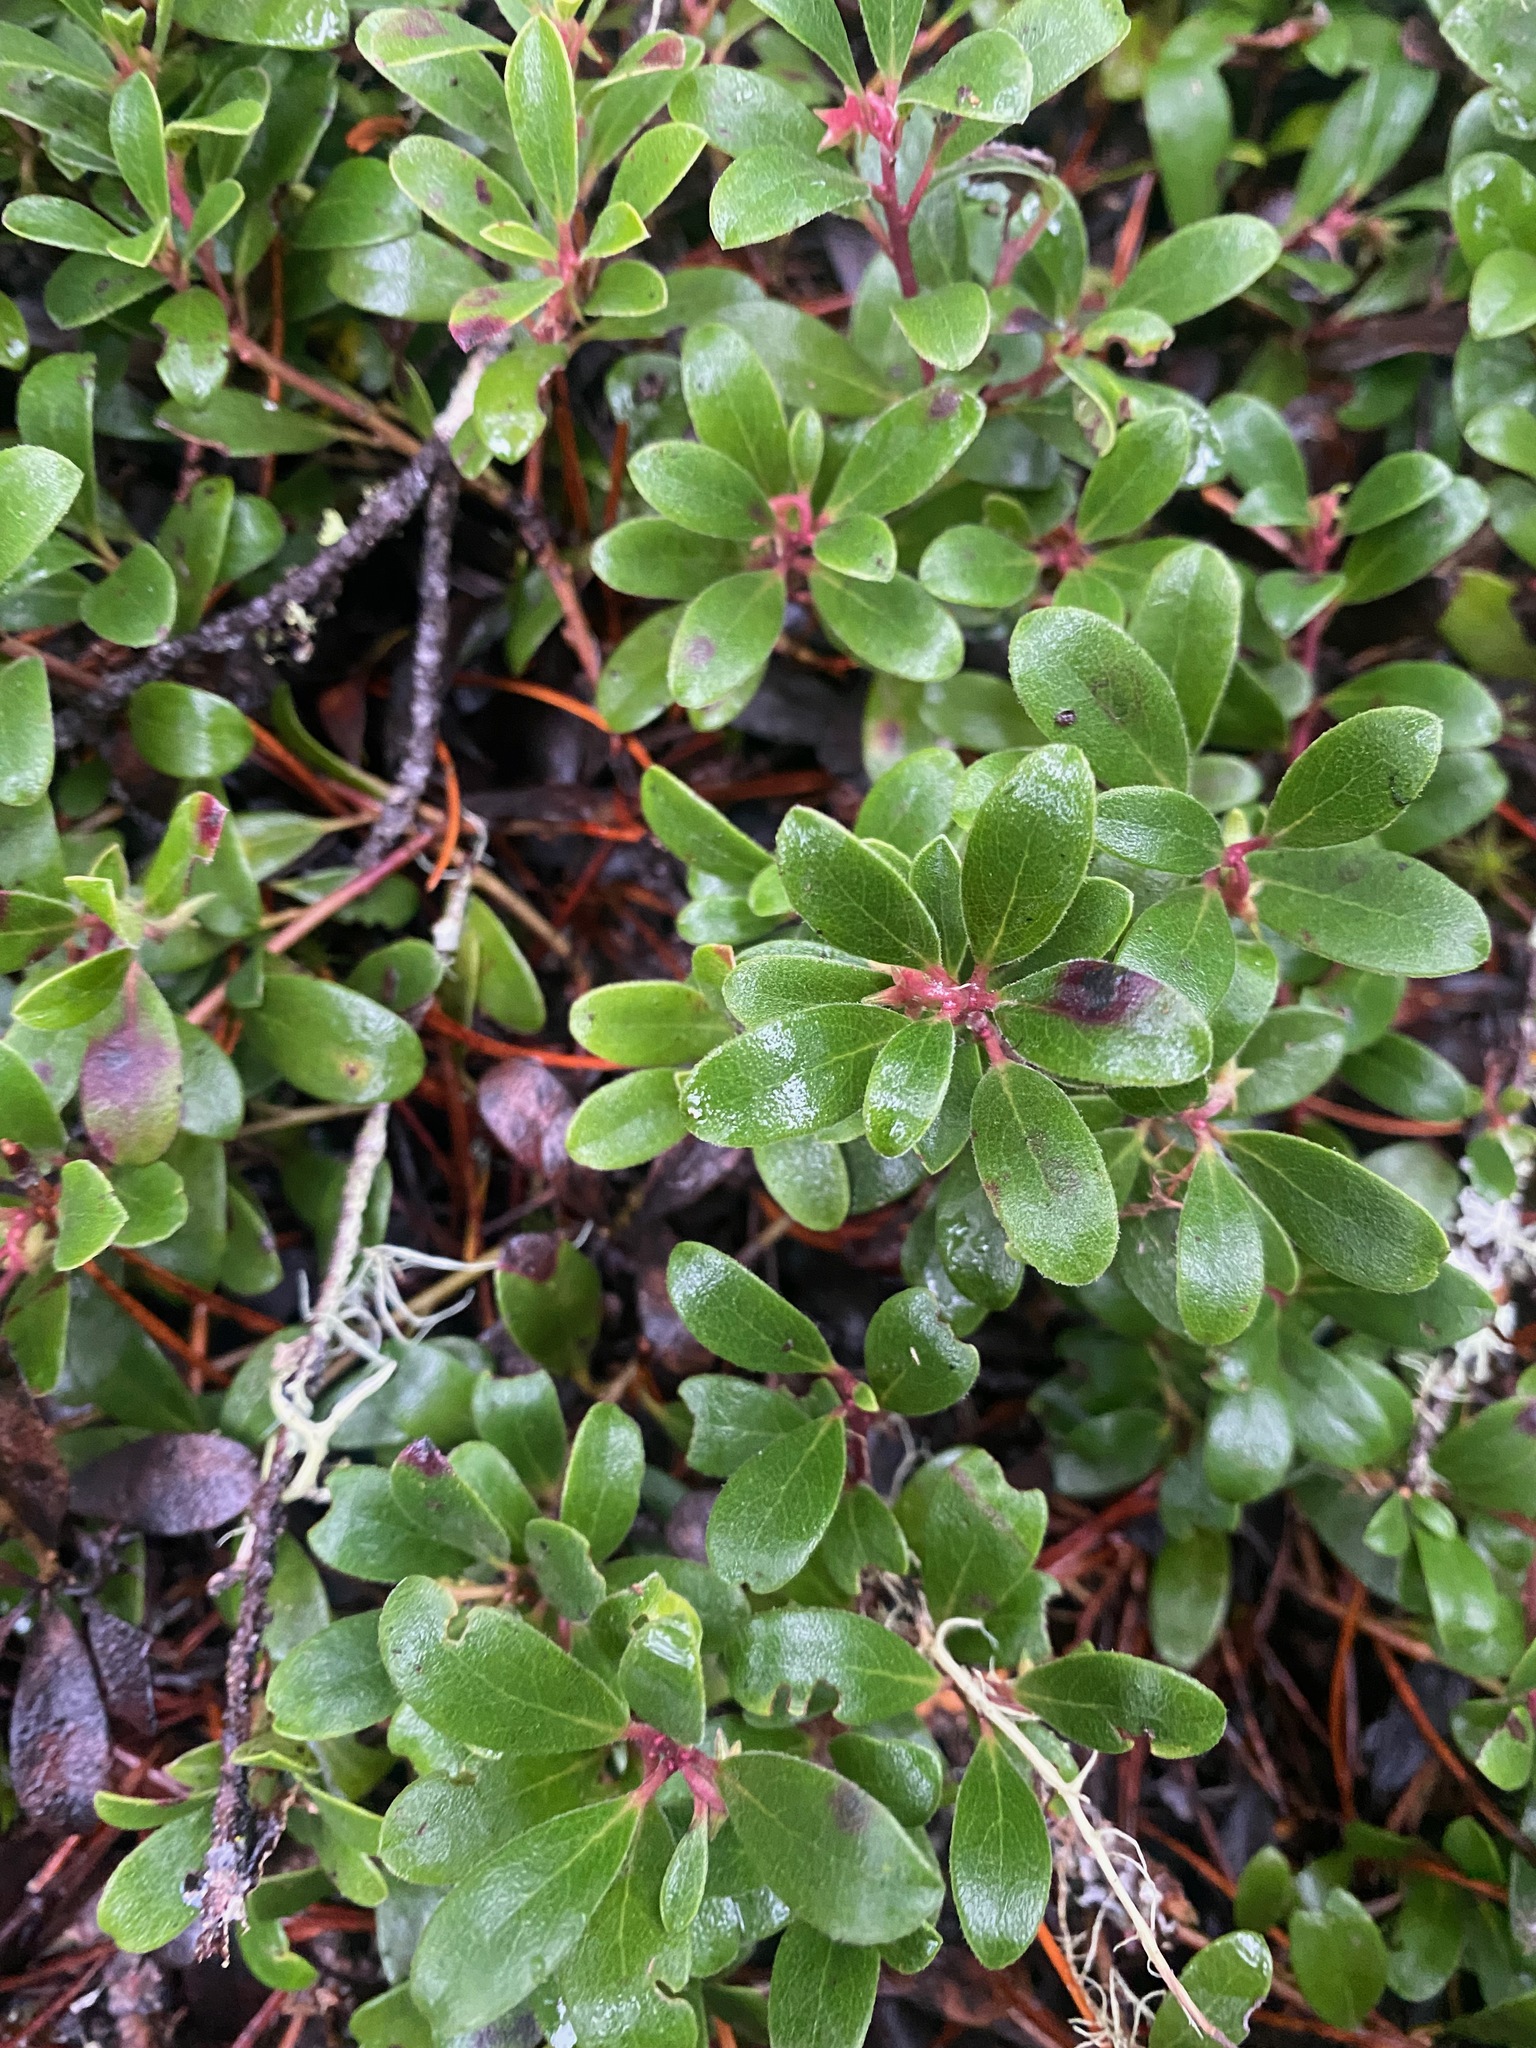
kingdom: Plantae
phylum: Tracheophyta
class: Magnoliopsida
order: Ericales
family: Ericaceae
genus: Arctostaphylos
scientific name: Arctostaphylos uva-ursi
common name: Bearberry
